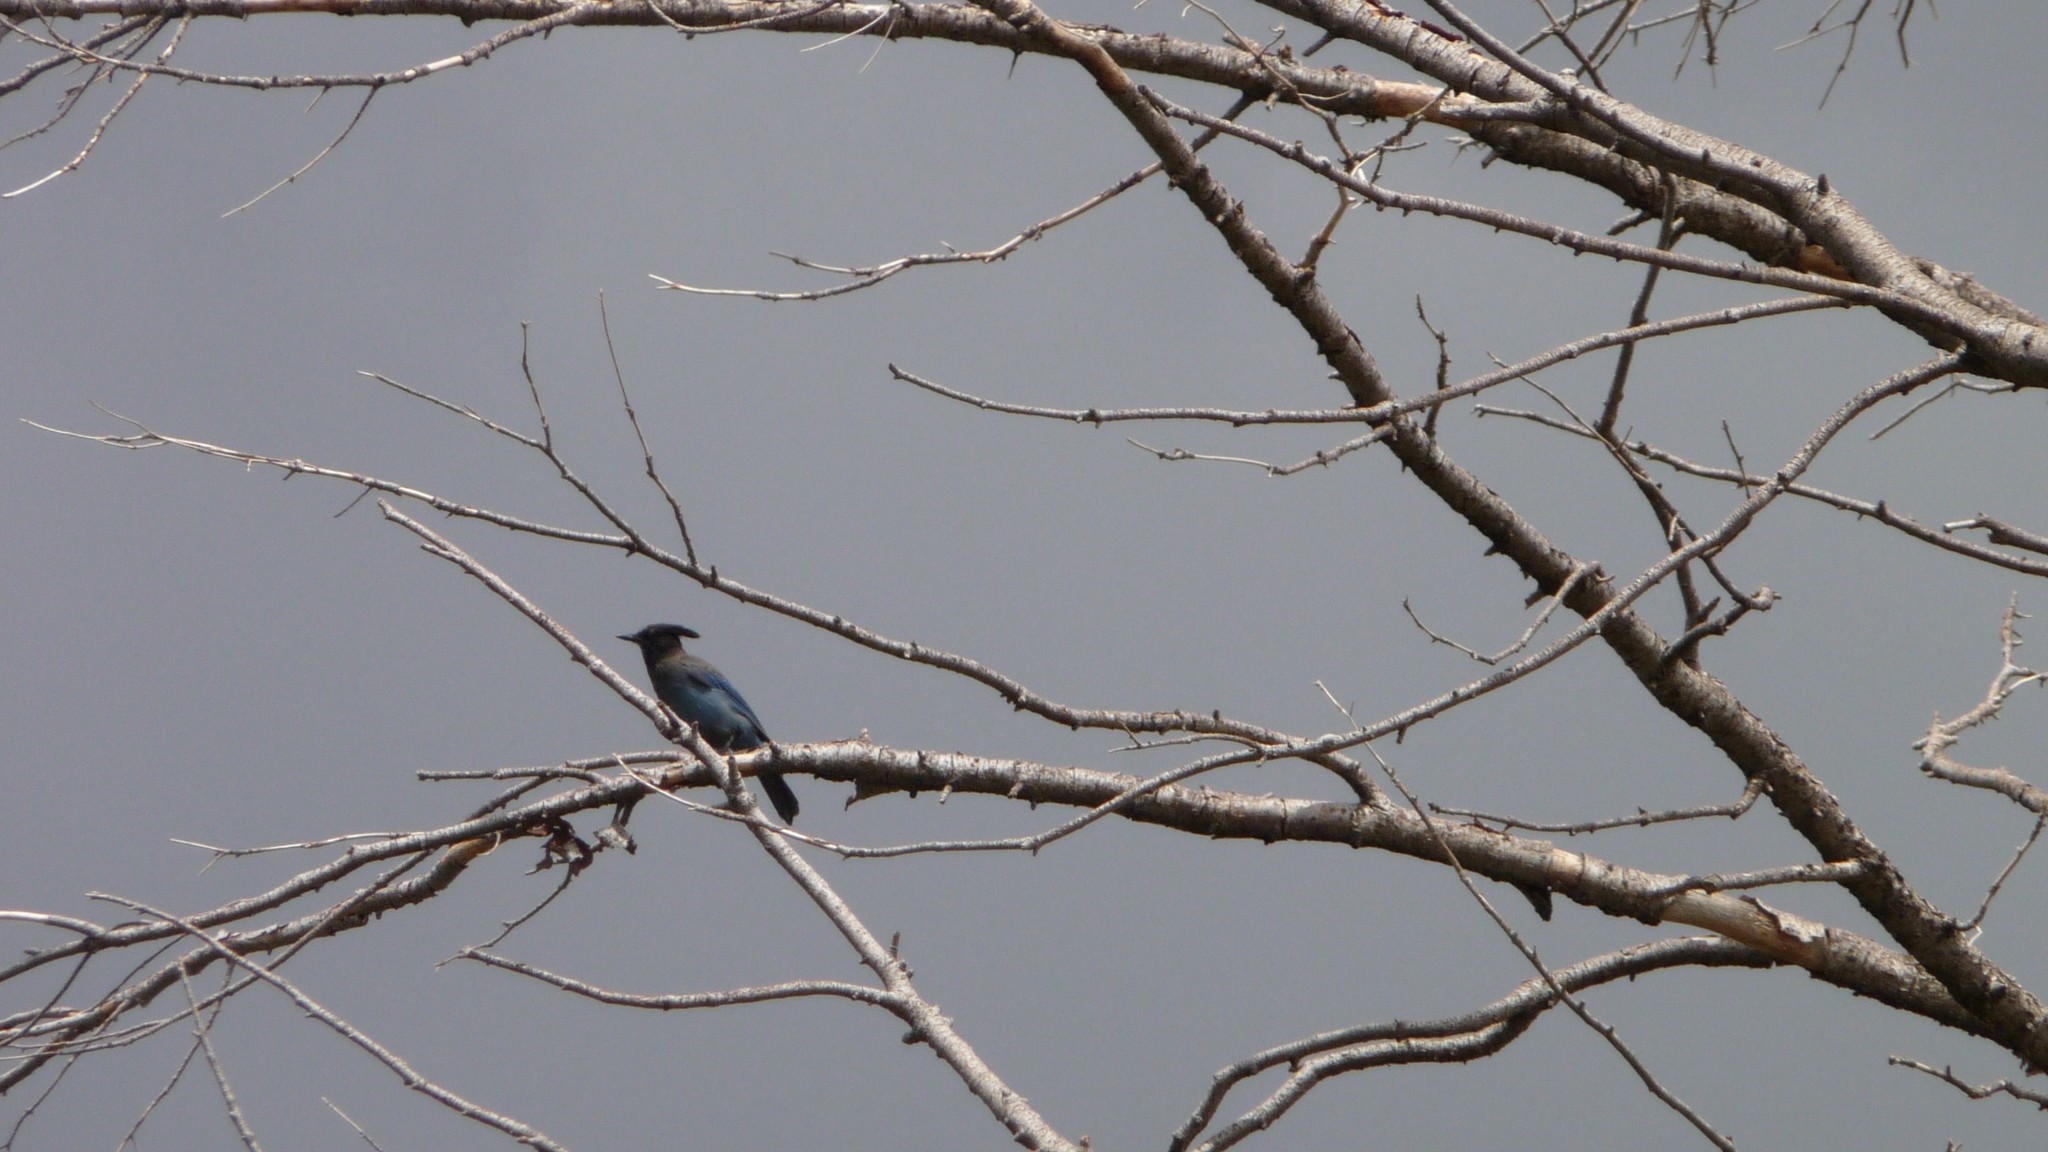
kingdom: Animalia
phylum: Chordata
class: Aves
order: Passeriformes
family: Corvidae
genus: Cyanocitta
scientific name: Cyanocitta stelleri
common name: Steller's jay
